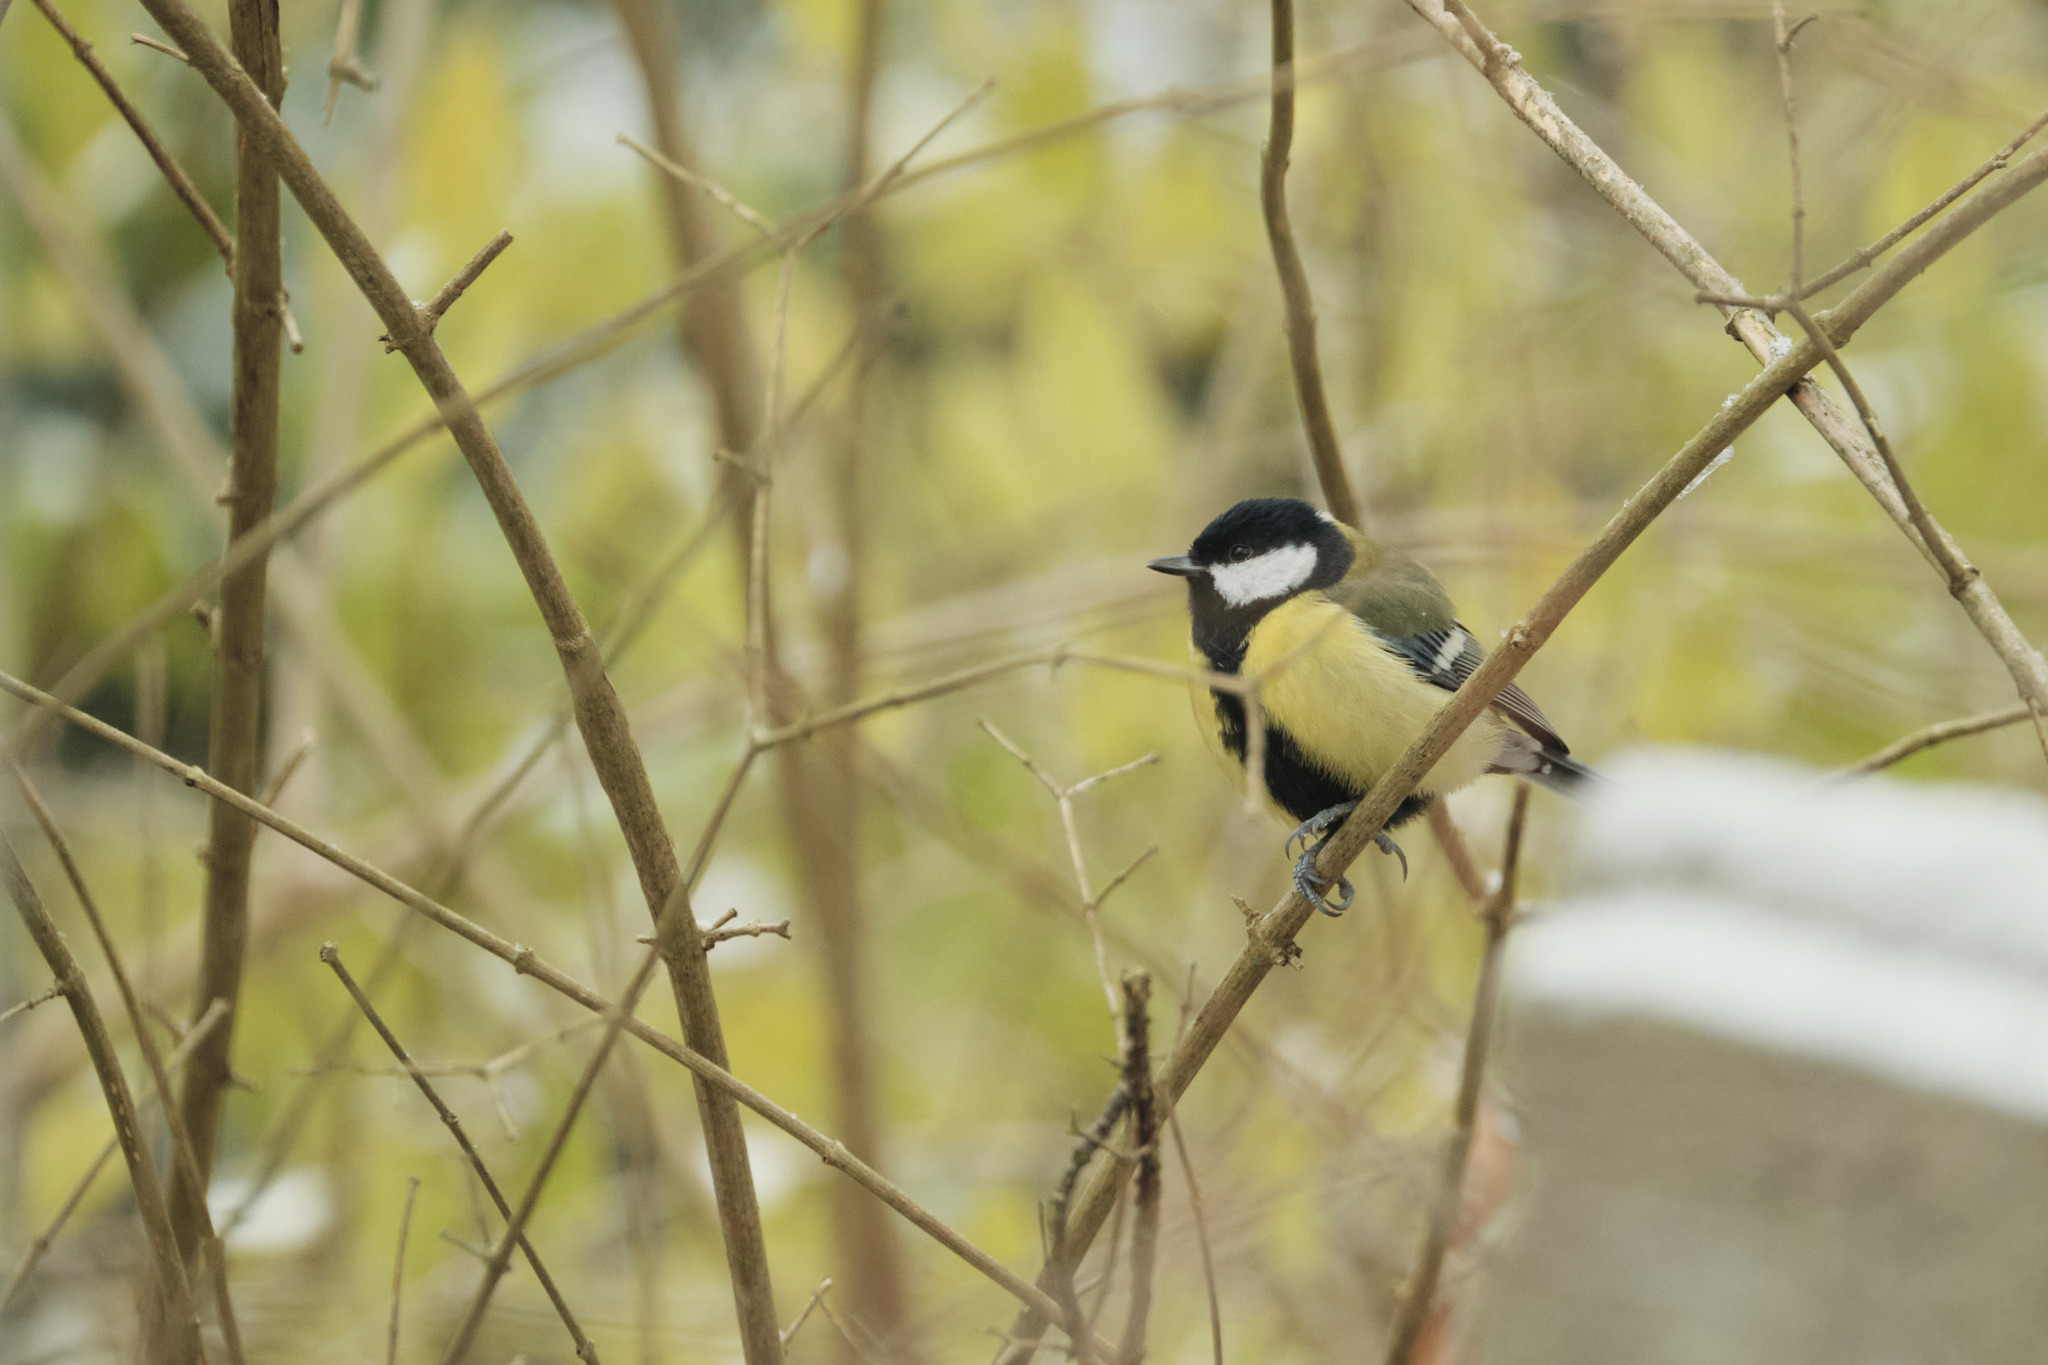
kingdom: Animalia
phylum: Chordata
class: Aves
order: Passeriformes
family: Paridae
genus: Parus
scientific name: Parus major
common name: Great tit
